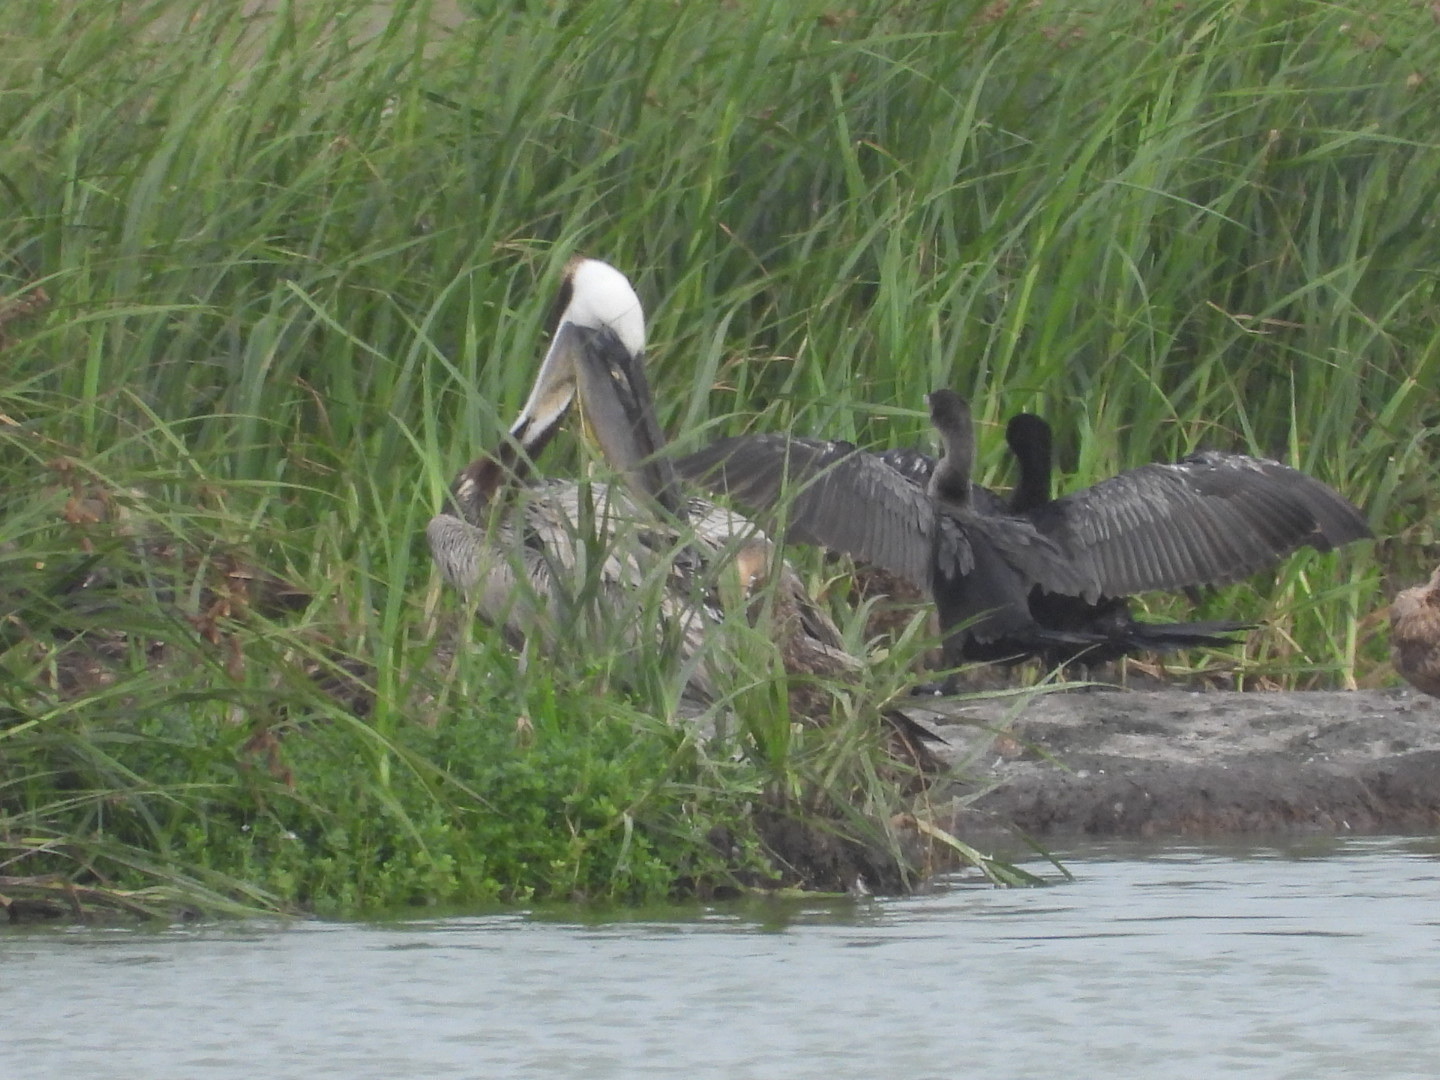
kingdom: Animalia
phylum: Chordata
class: Aves
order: Suliformes
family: Phalacrocoracidae
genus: Phalacrocorax
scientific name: Phalacrocorax brasilianus
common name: Neotropic cormorant
